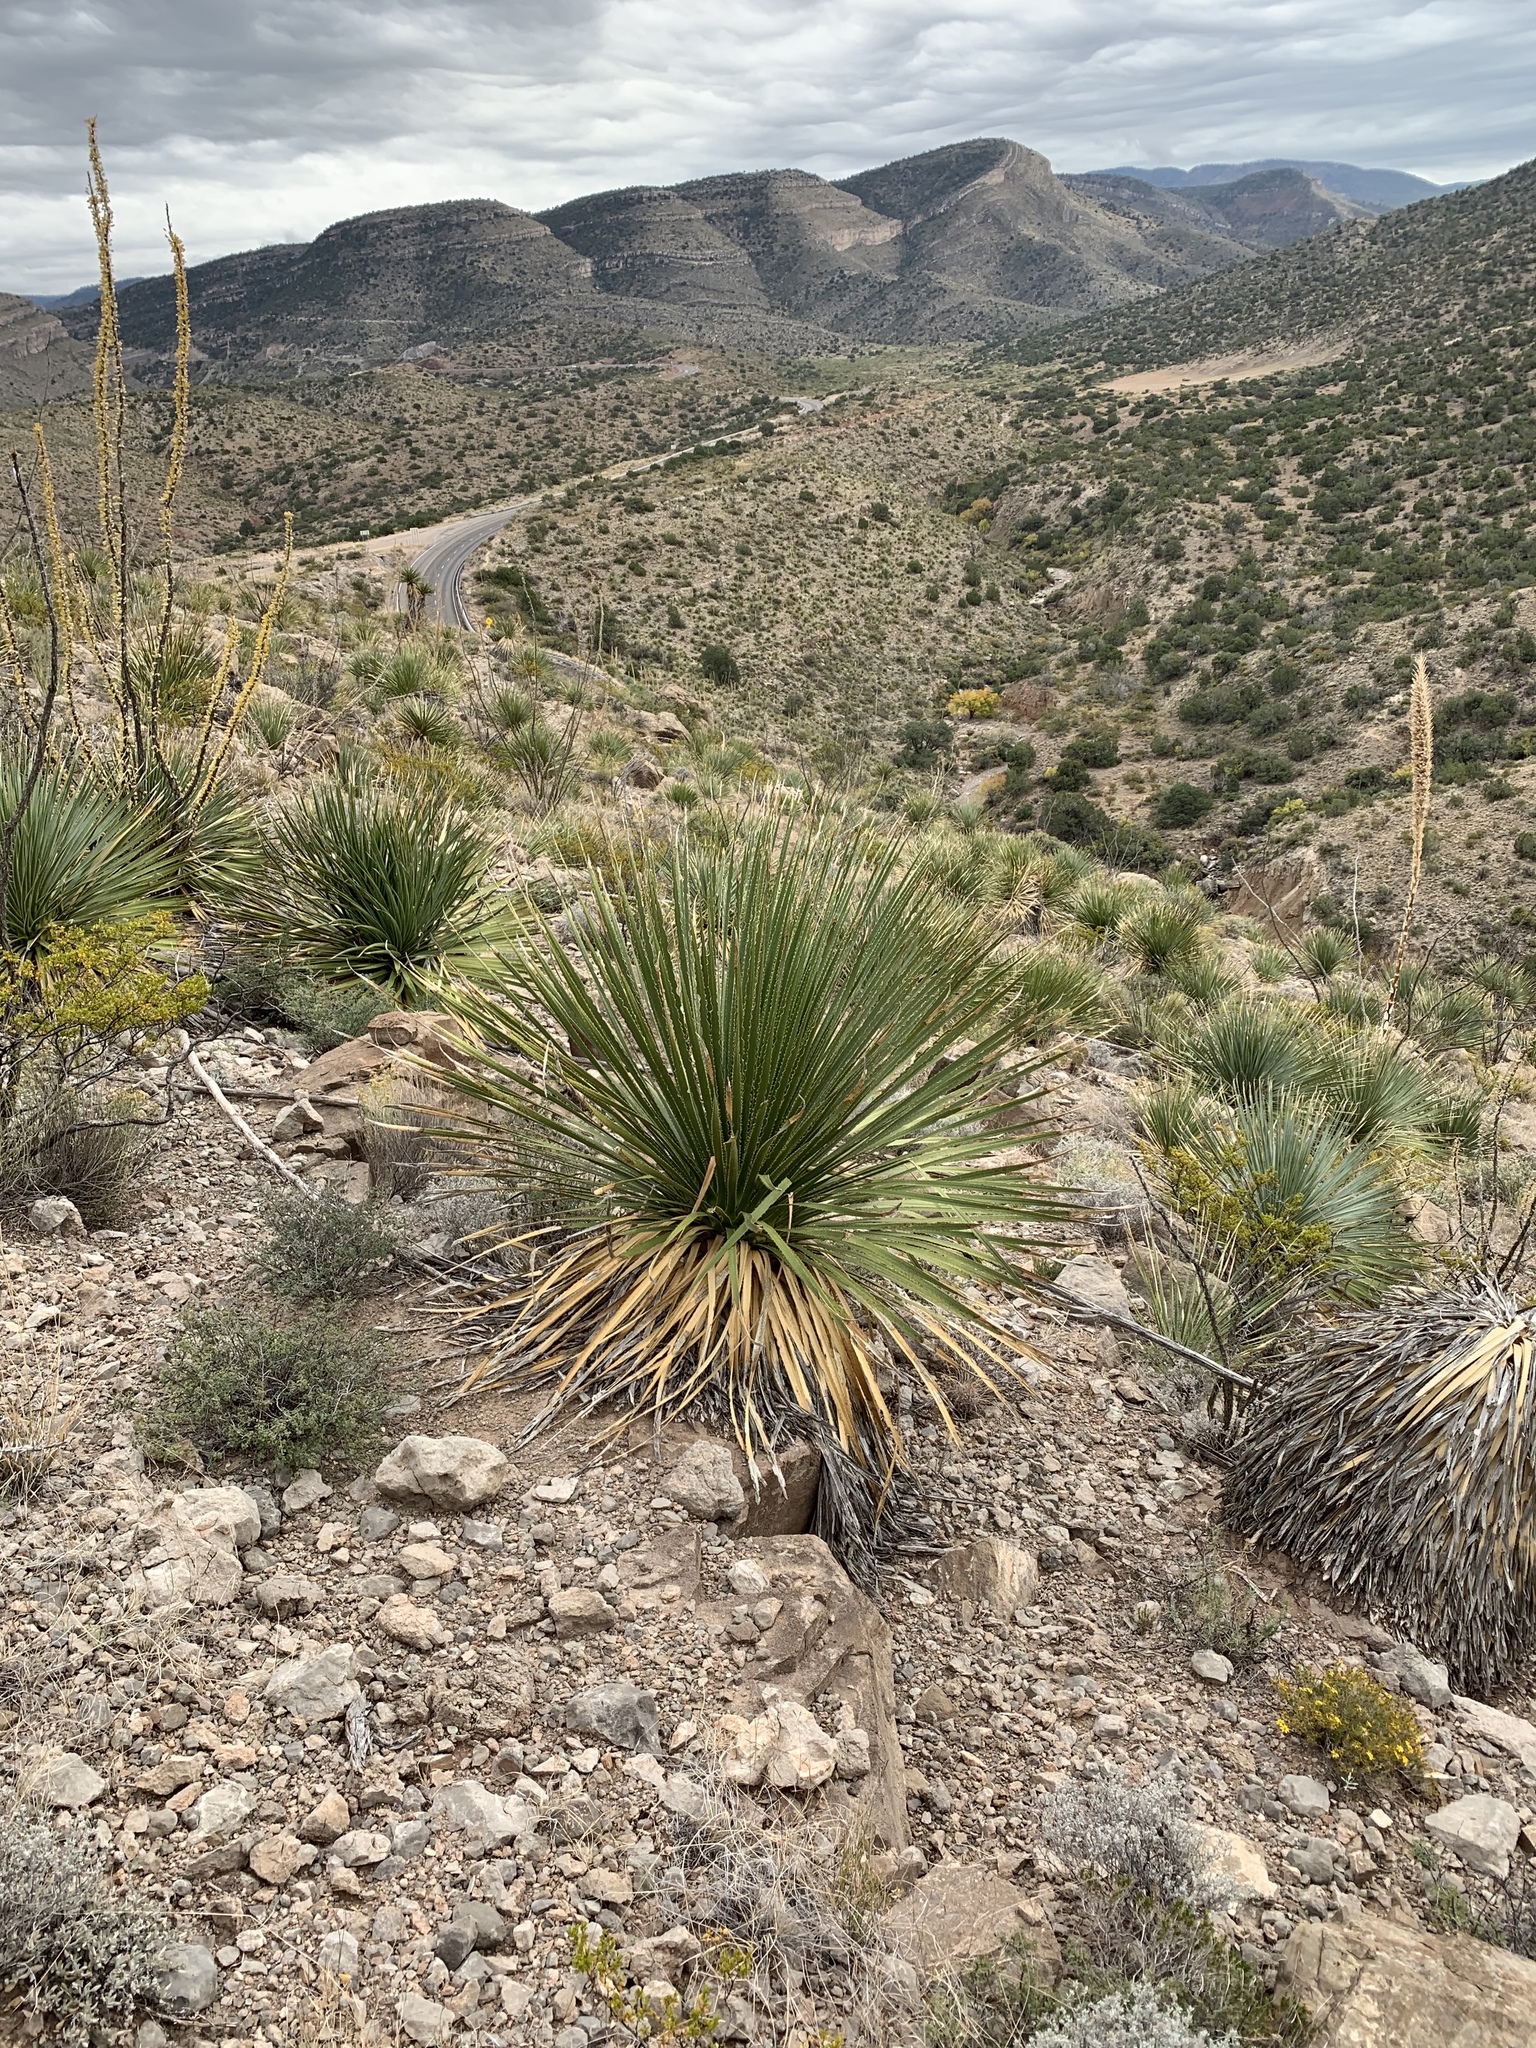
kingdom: Plantae
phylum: Tracheophyta
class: Liliopsida
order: Asparagales
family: Asparagaceae
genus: Dasylirion
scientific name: Dasylirion wheeleri
